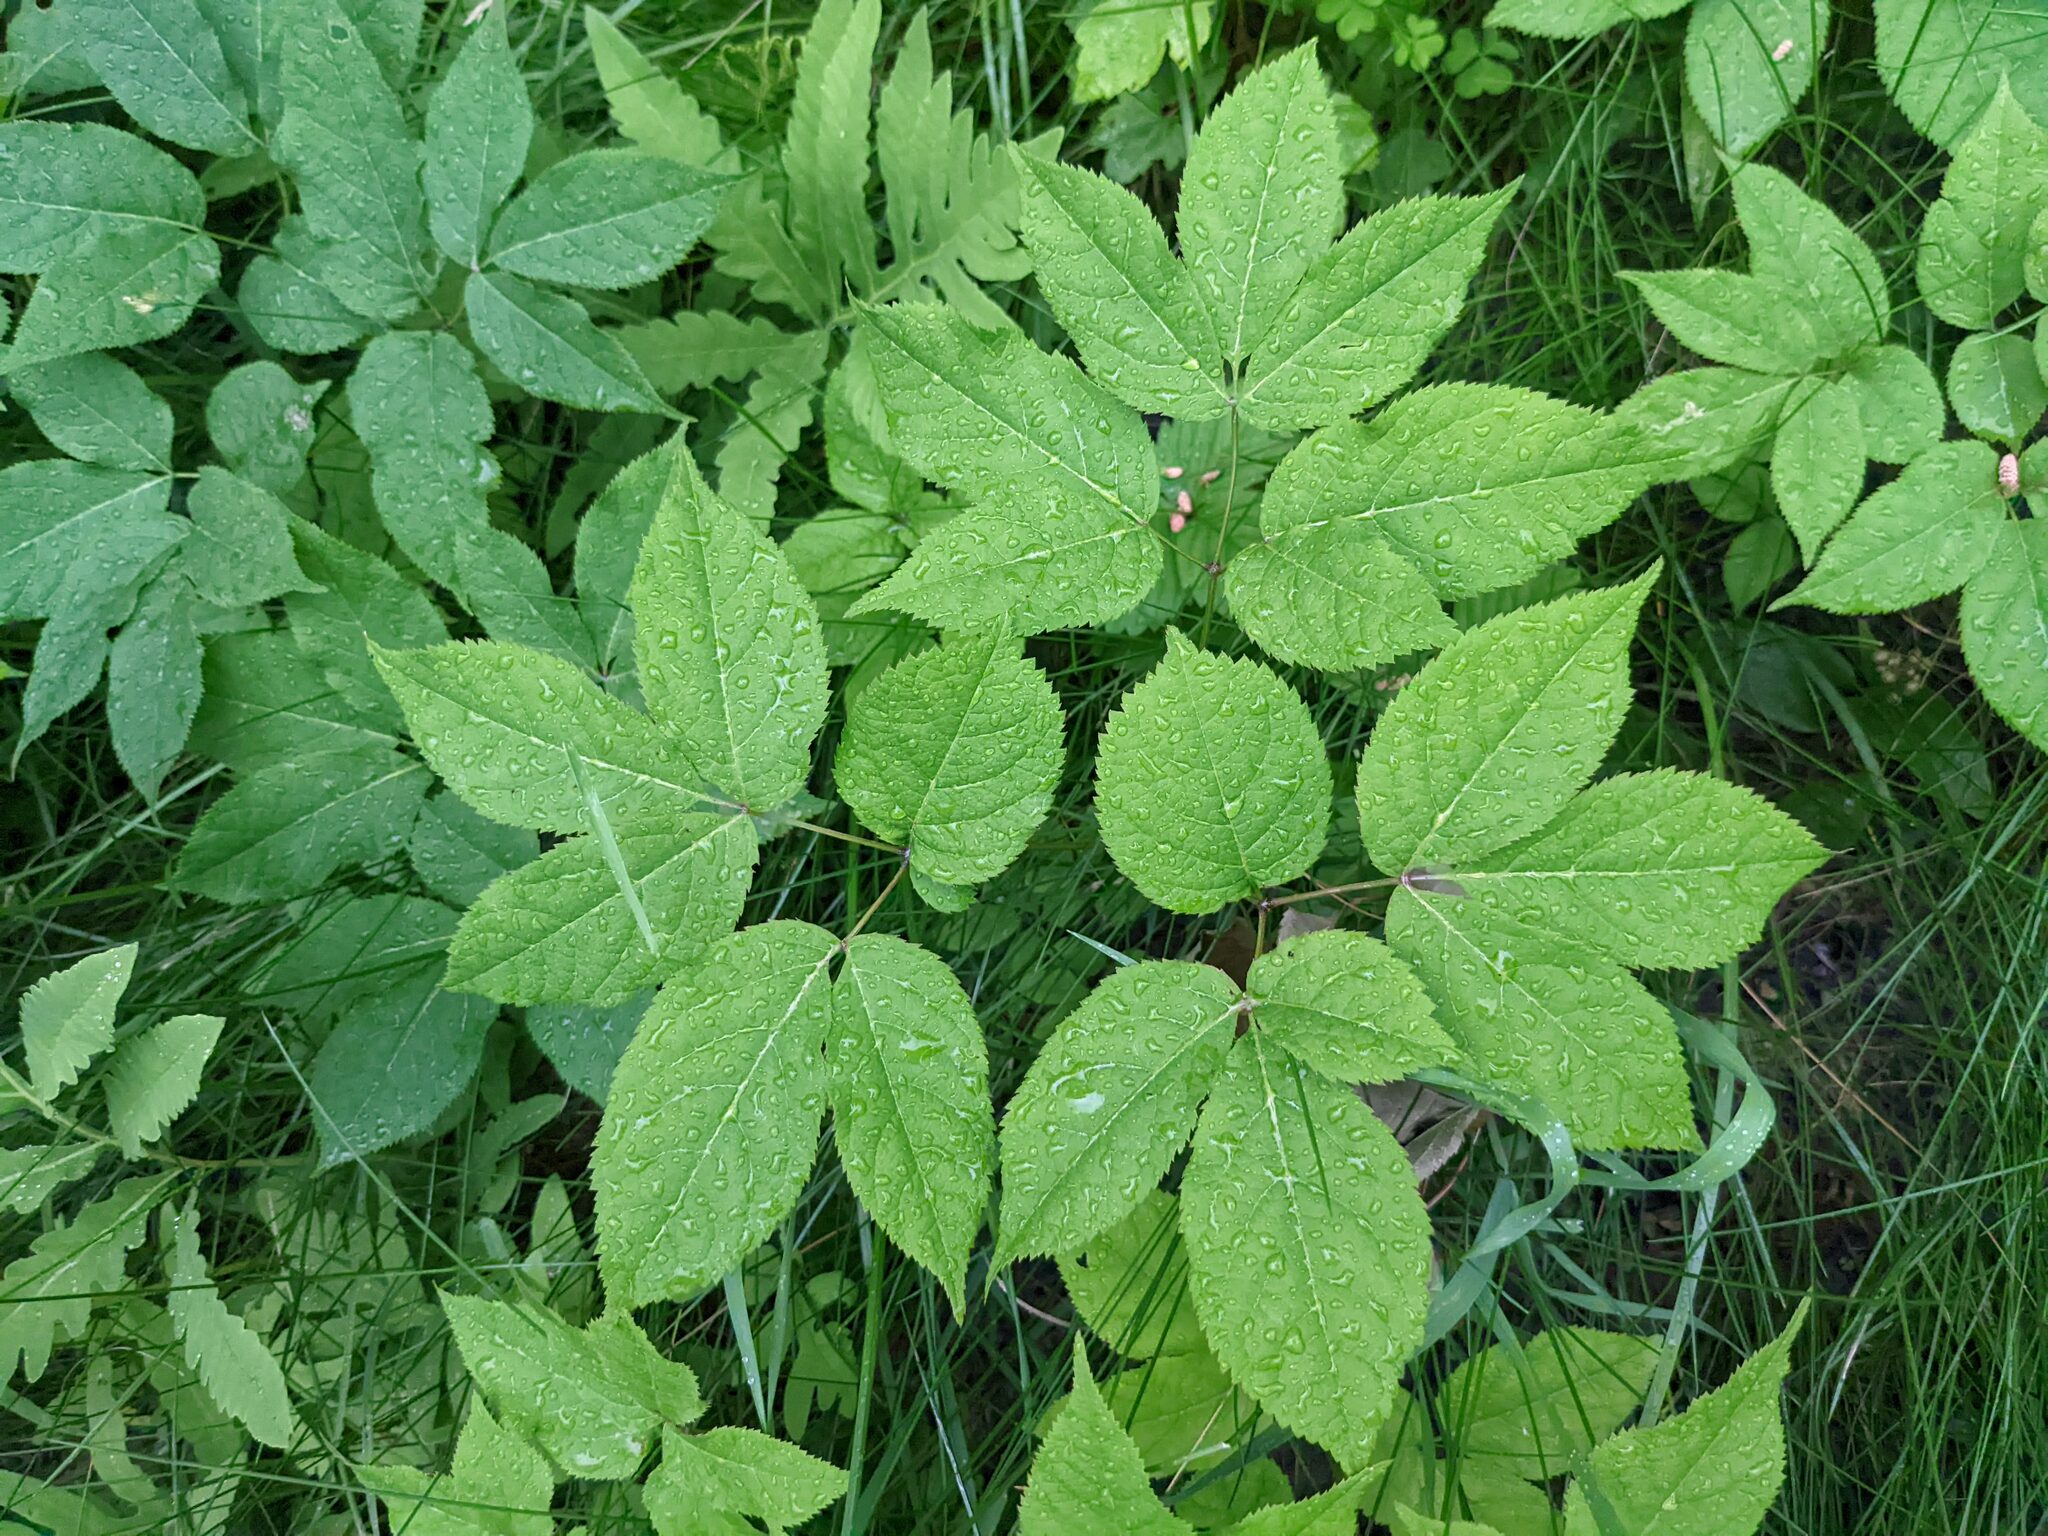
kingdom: Plantae
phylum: Tracheophyta
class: Magnoliopsida
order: Apiales
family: Araliaceae
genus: Aralia
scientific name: Aralia nudicaulis
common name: Wild sarsaparilla
